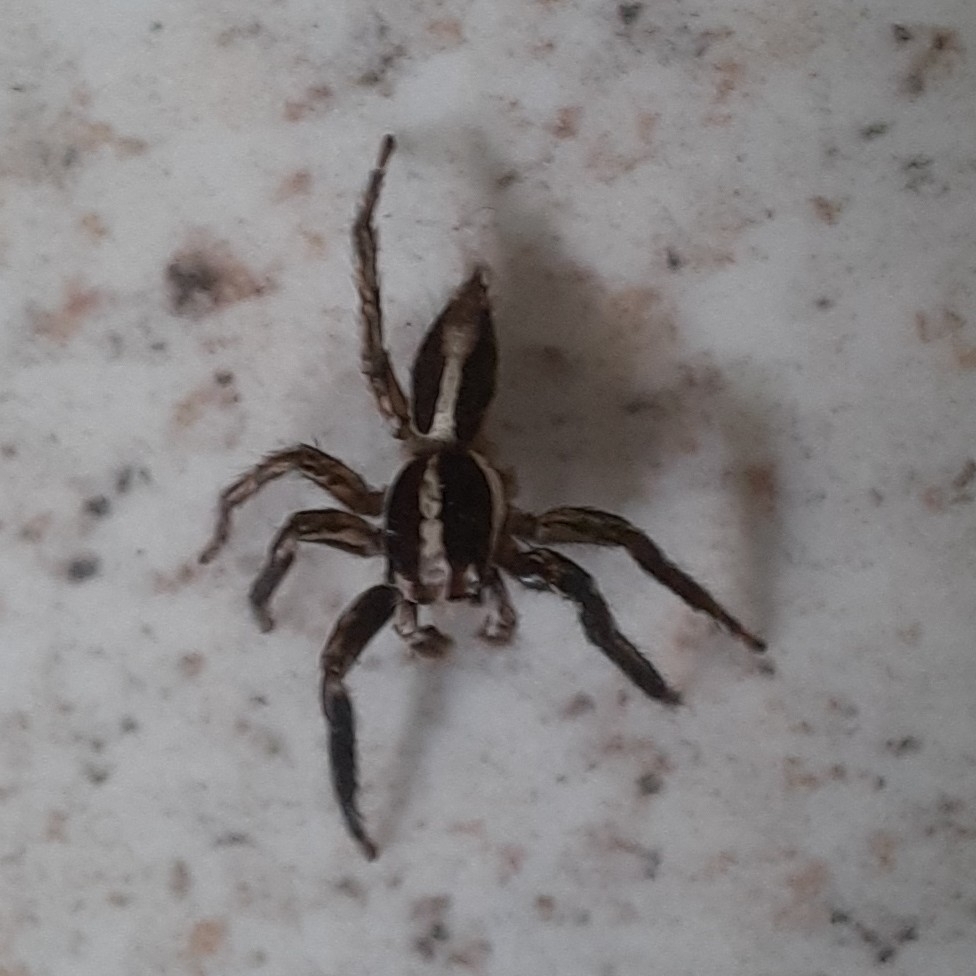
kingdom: Animalia
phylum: Arthropoda
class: Arachnida
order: Araneae
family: Salticidae
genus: Plexippus
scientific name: Plexippus paykulli
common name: Pantropical jumper
